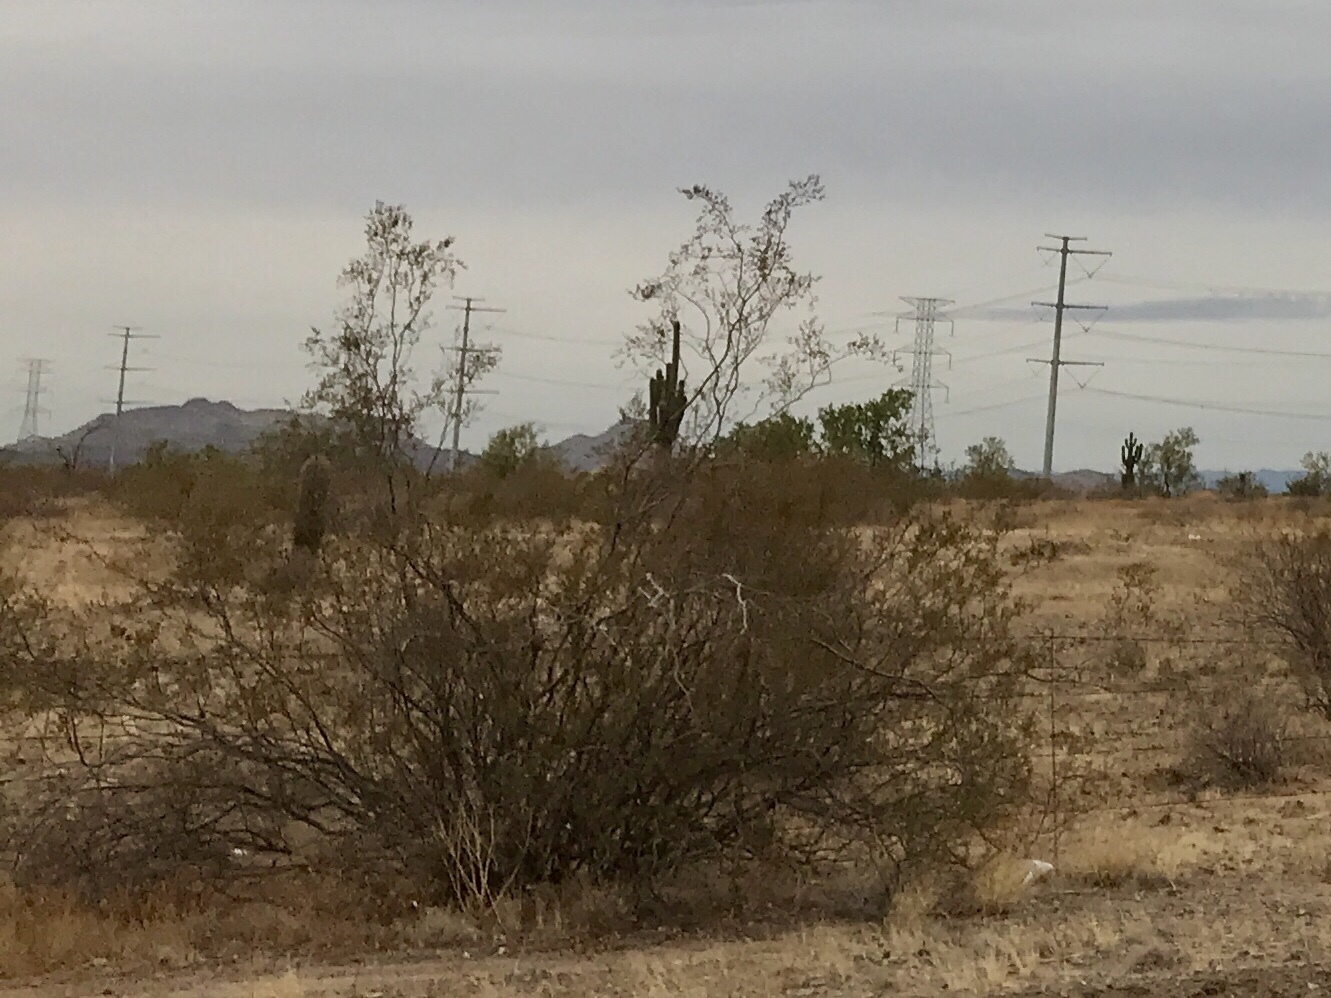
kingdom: Plantae
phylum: Tracheophyta
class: Magnoliopsida
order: Zygophyllales
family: Zygophyllaceae
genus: Larrea
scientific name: Larrea tridentata
